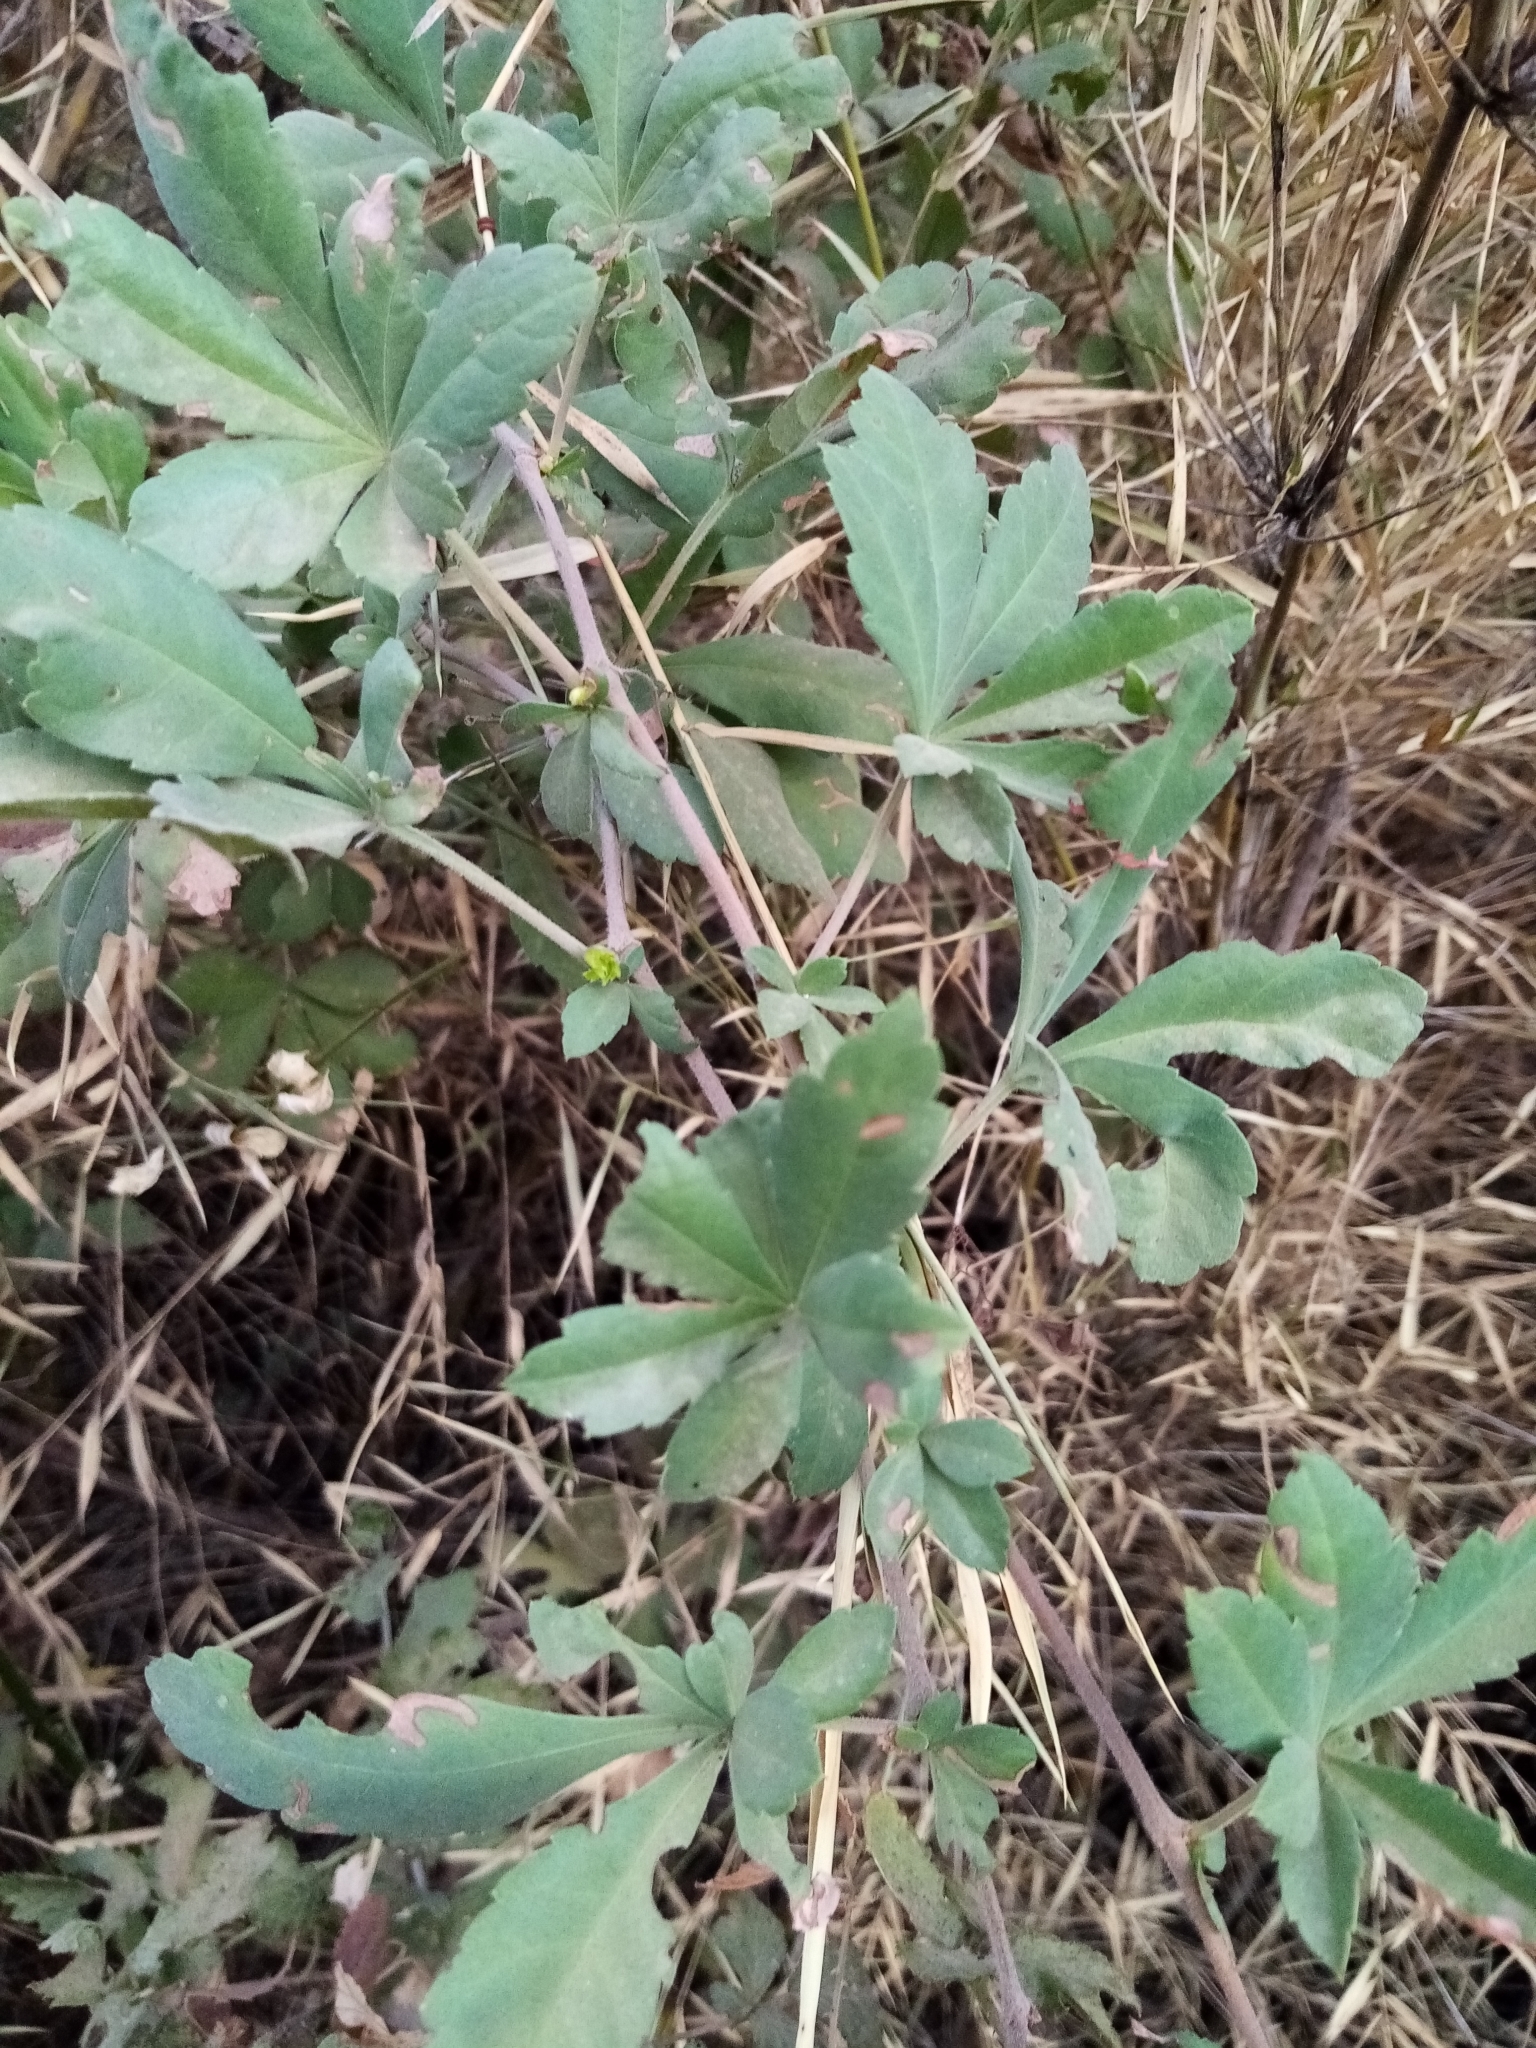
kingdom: Plantae
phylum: Tracheophyta
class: Magnoliopsida
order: Vitales
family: Vitaceae
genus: Clematicissus
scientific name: Clematicissus striata
